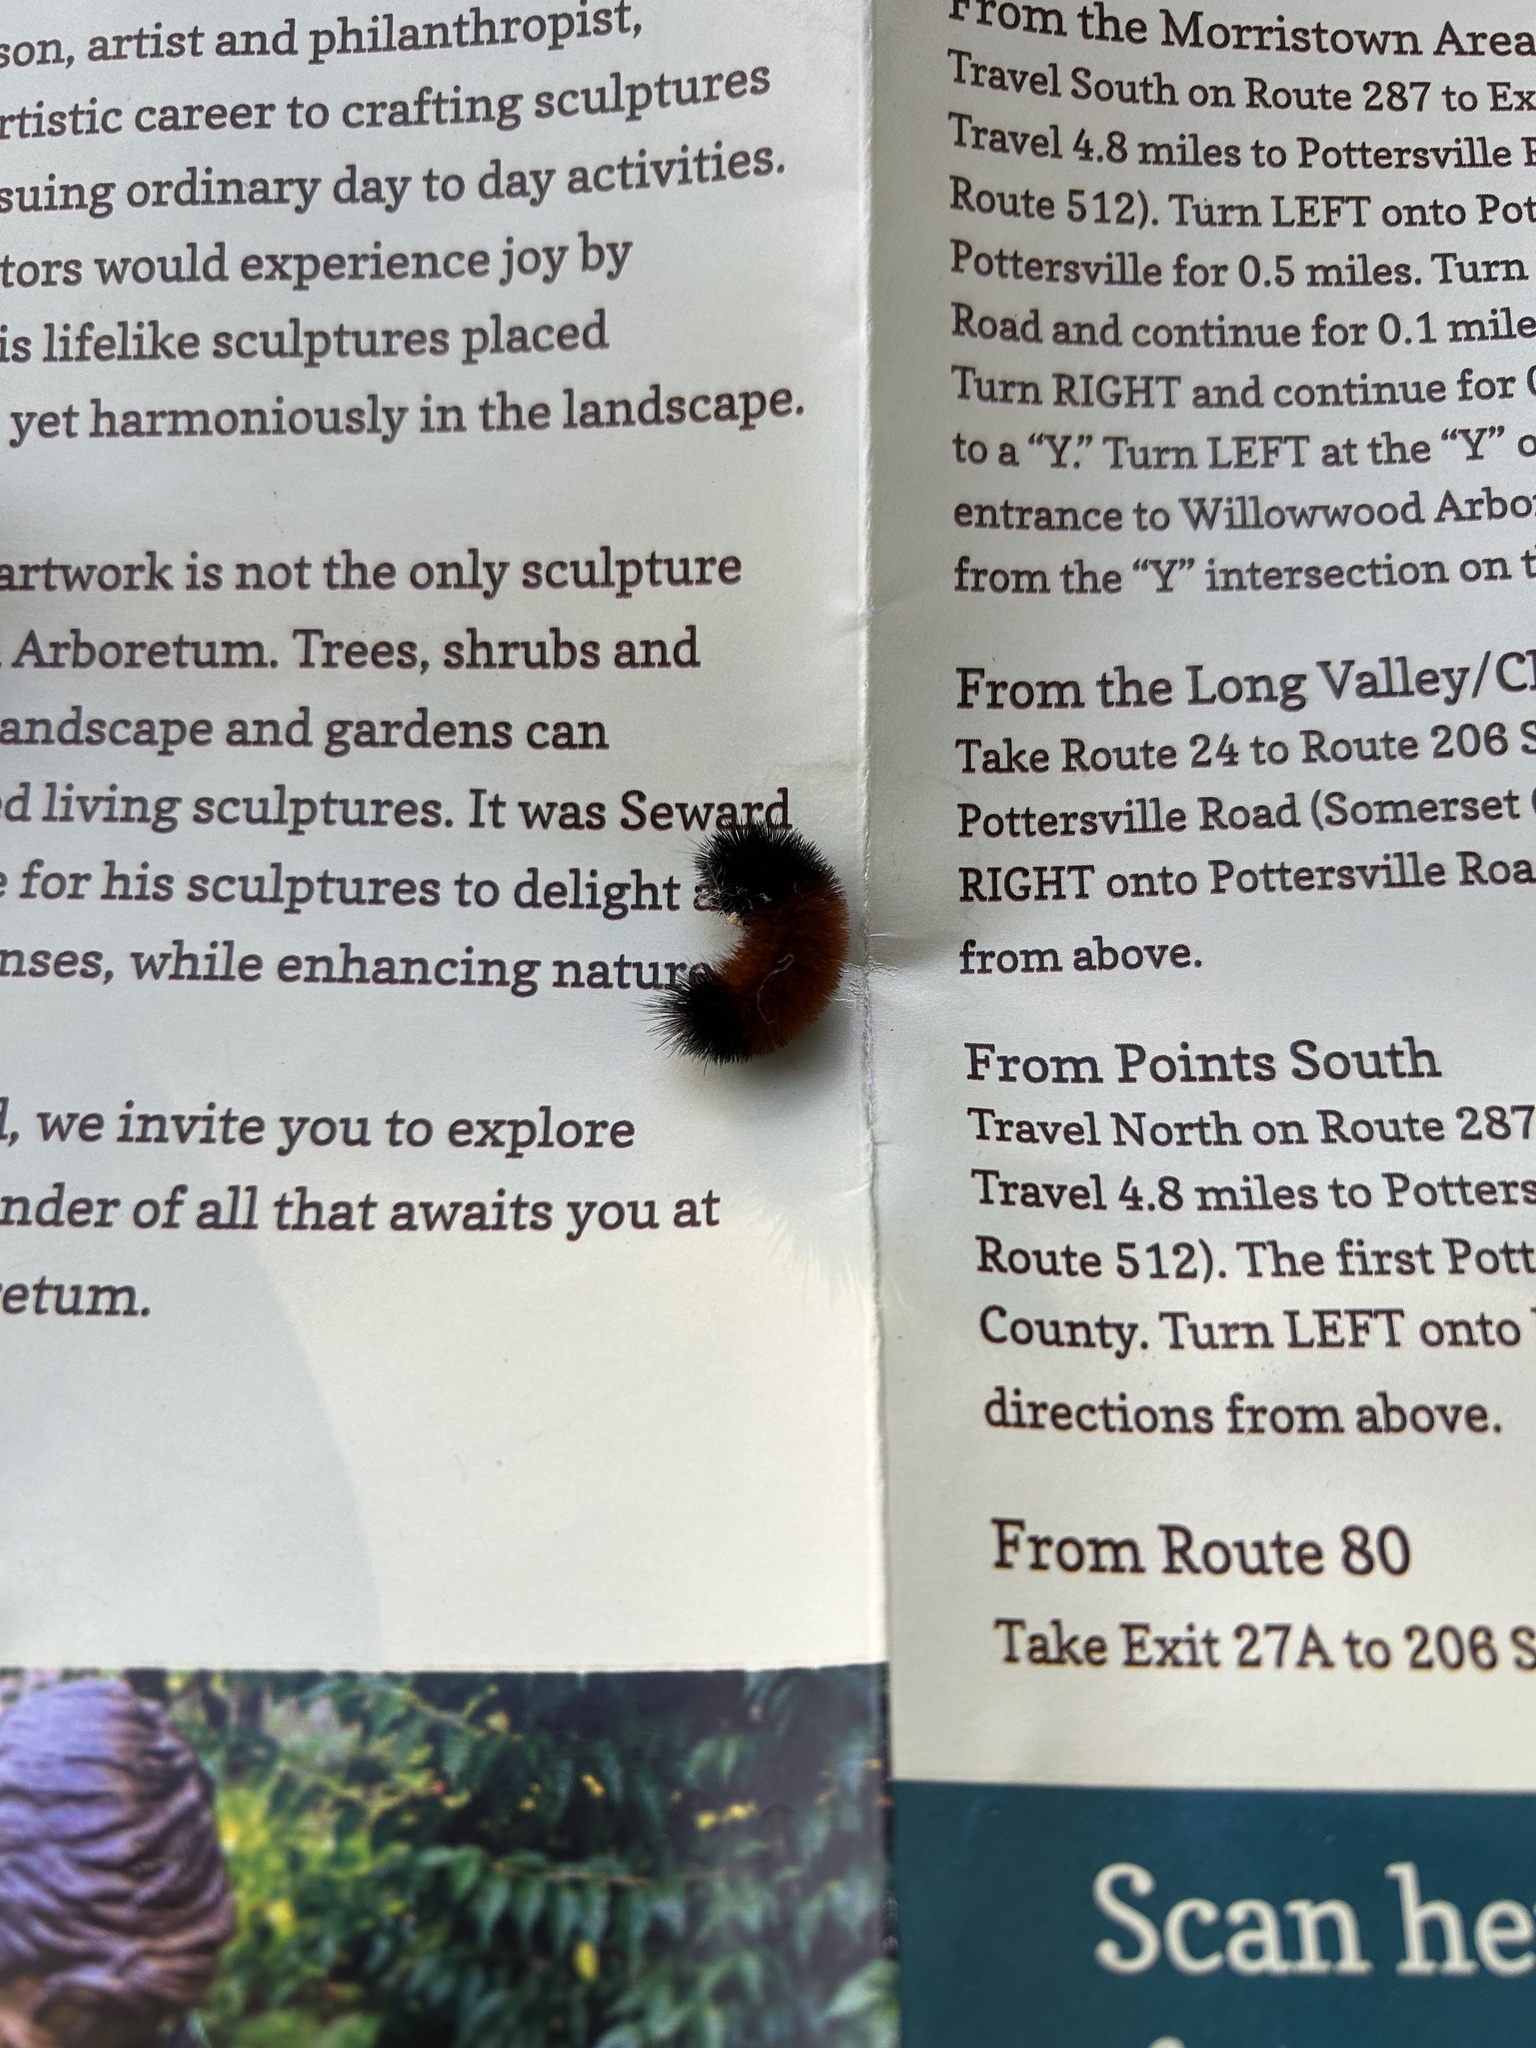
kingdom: Animalia
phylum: Arthropoda
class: Insecta
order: Lepidoptera
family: Erebidae
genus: Pyrrharctia
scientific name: Pyrrharctia isabella
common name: Isabella tiger moth
